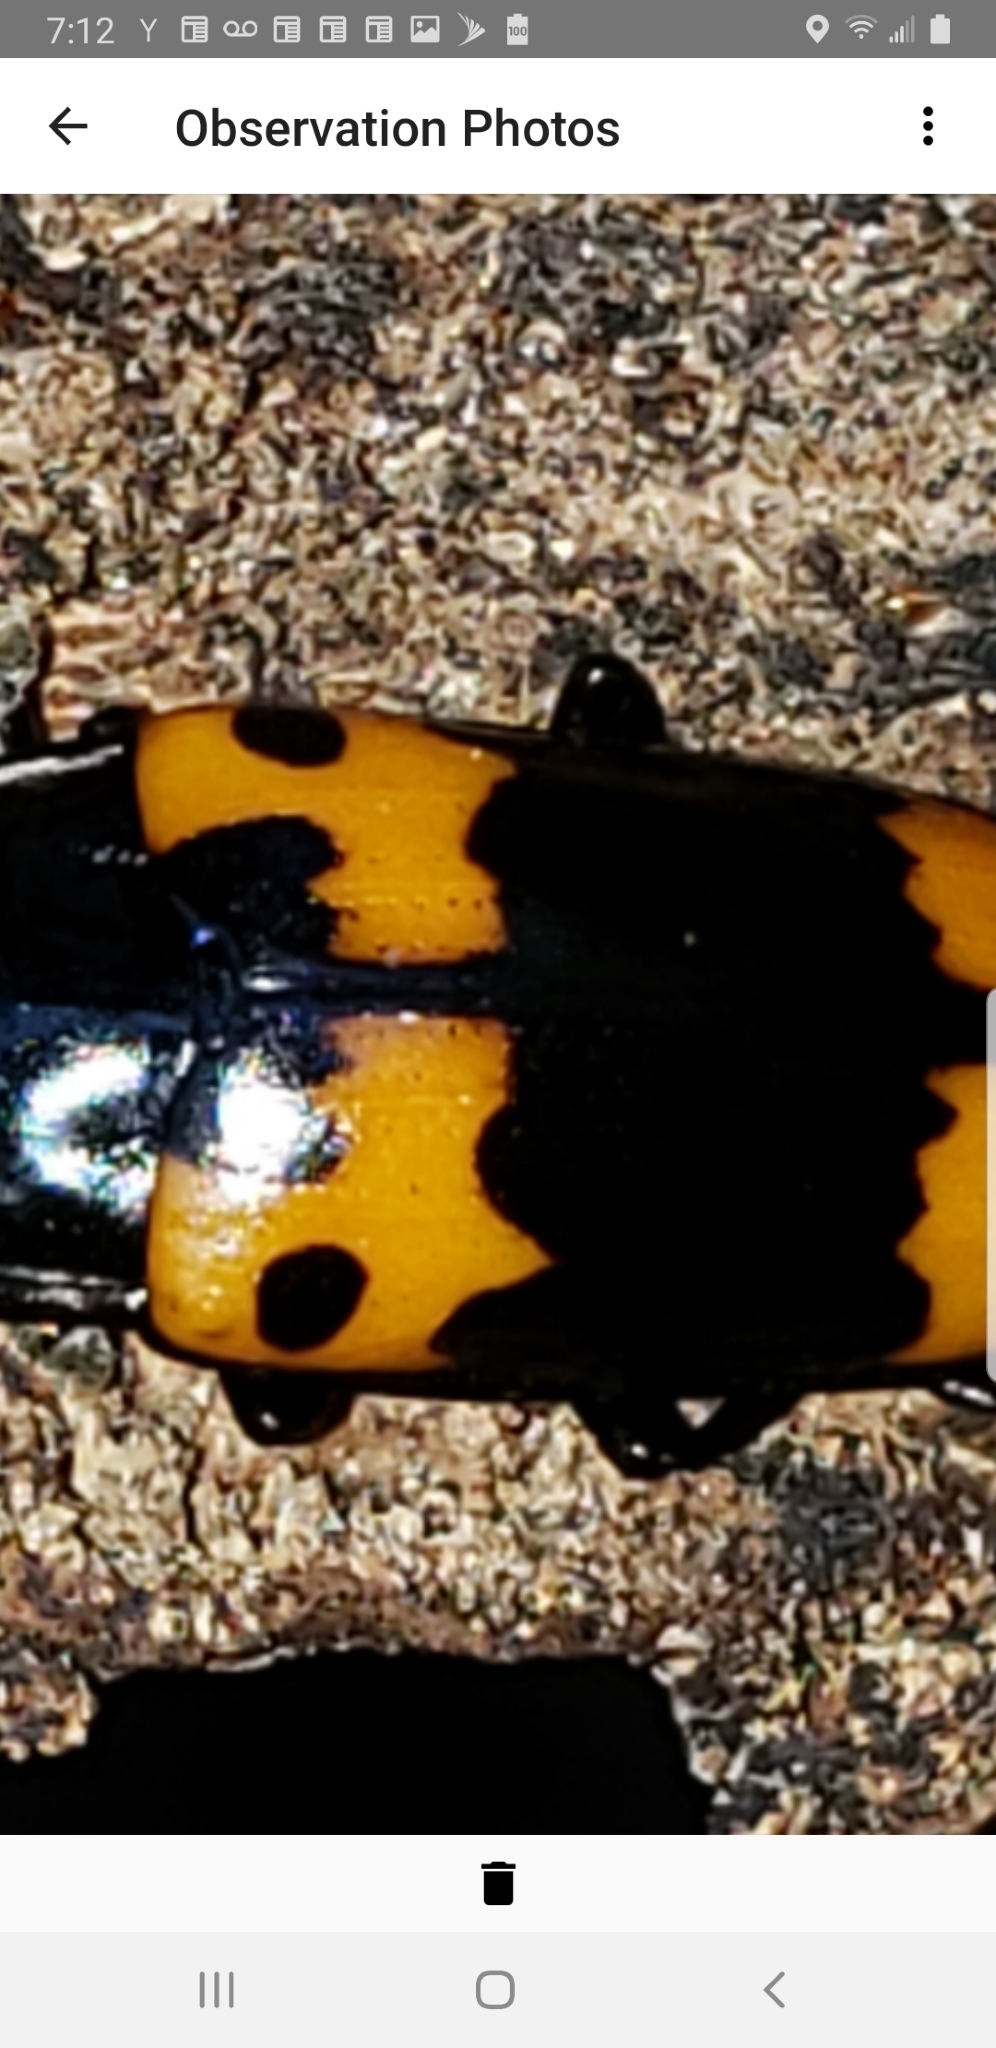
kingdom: Animalia
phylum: Arthropoda
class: Insecta
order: Coleoptera
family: Erotylidae
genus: Megalodacne
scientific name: Megalodacne fasciata
